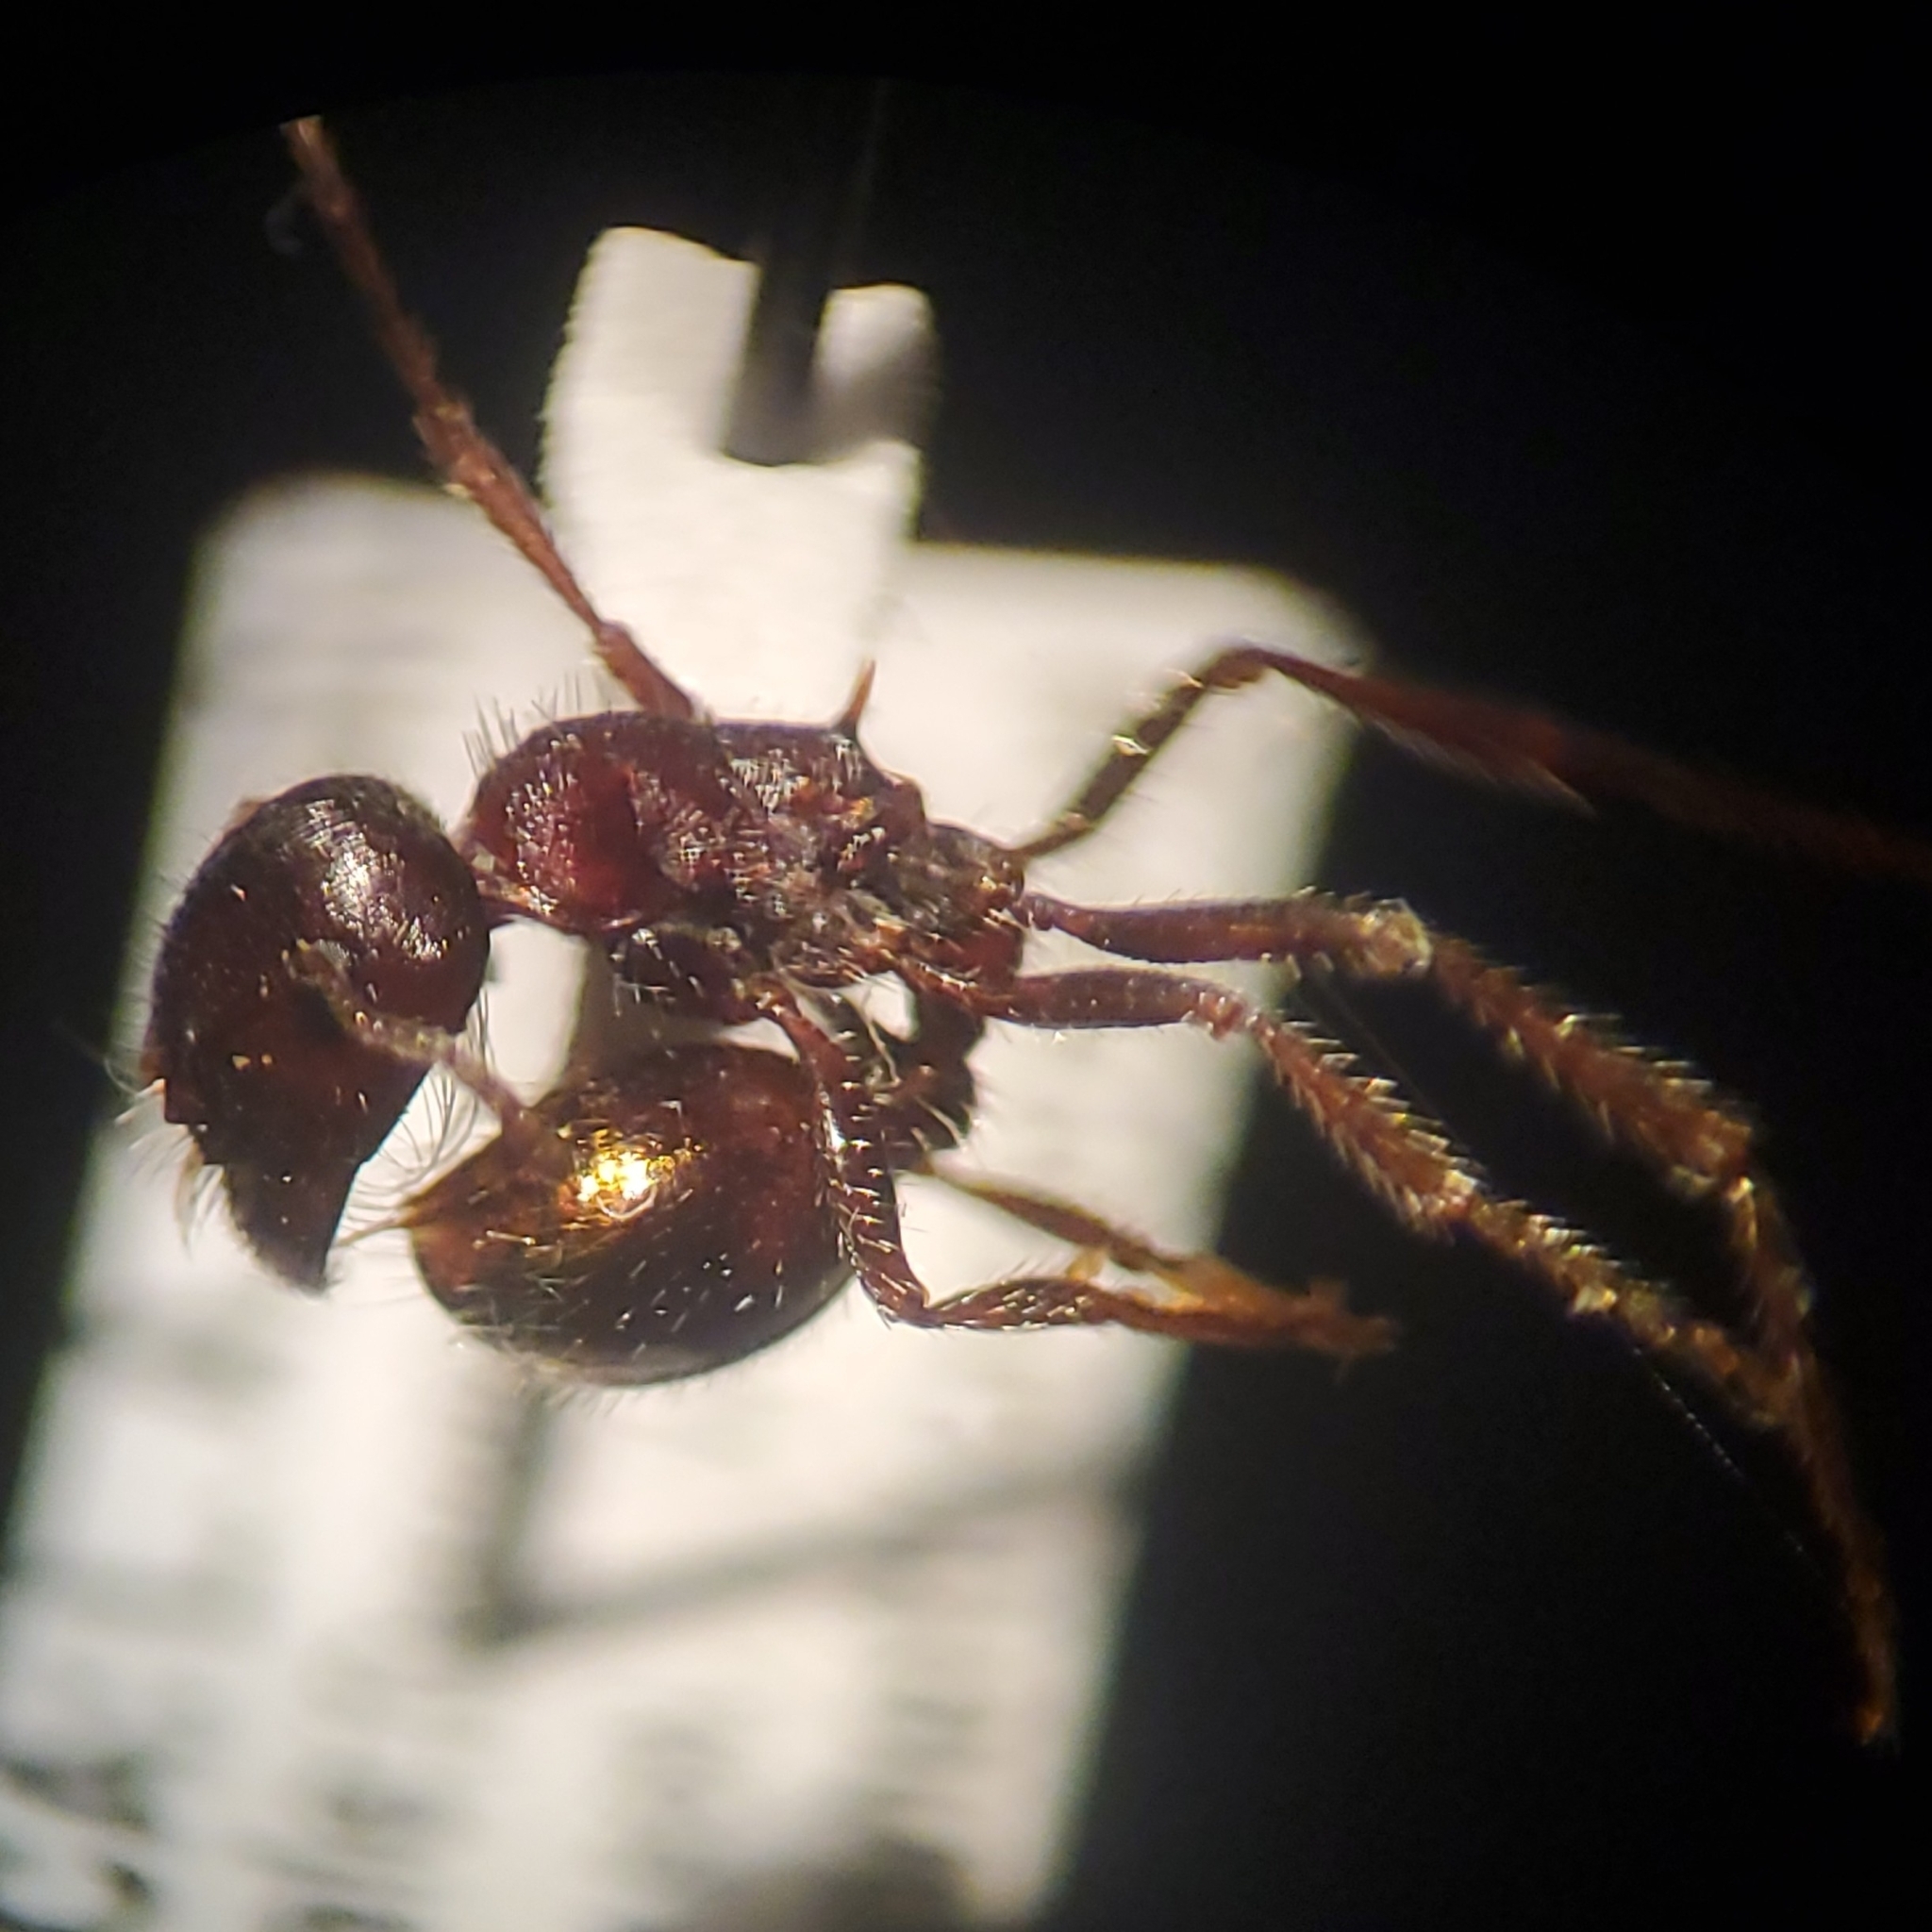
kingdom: Animalia
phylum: Arthropoda
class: Insecta
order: Hymenoptera
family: Formicidae
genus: Pogonomyrmex
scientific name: Pogonomyrmex rugosus
